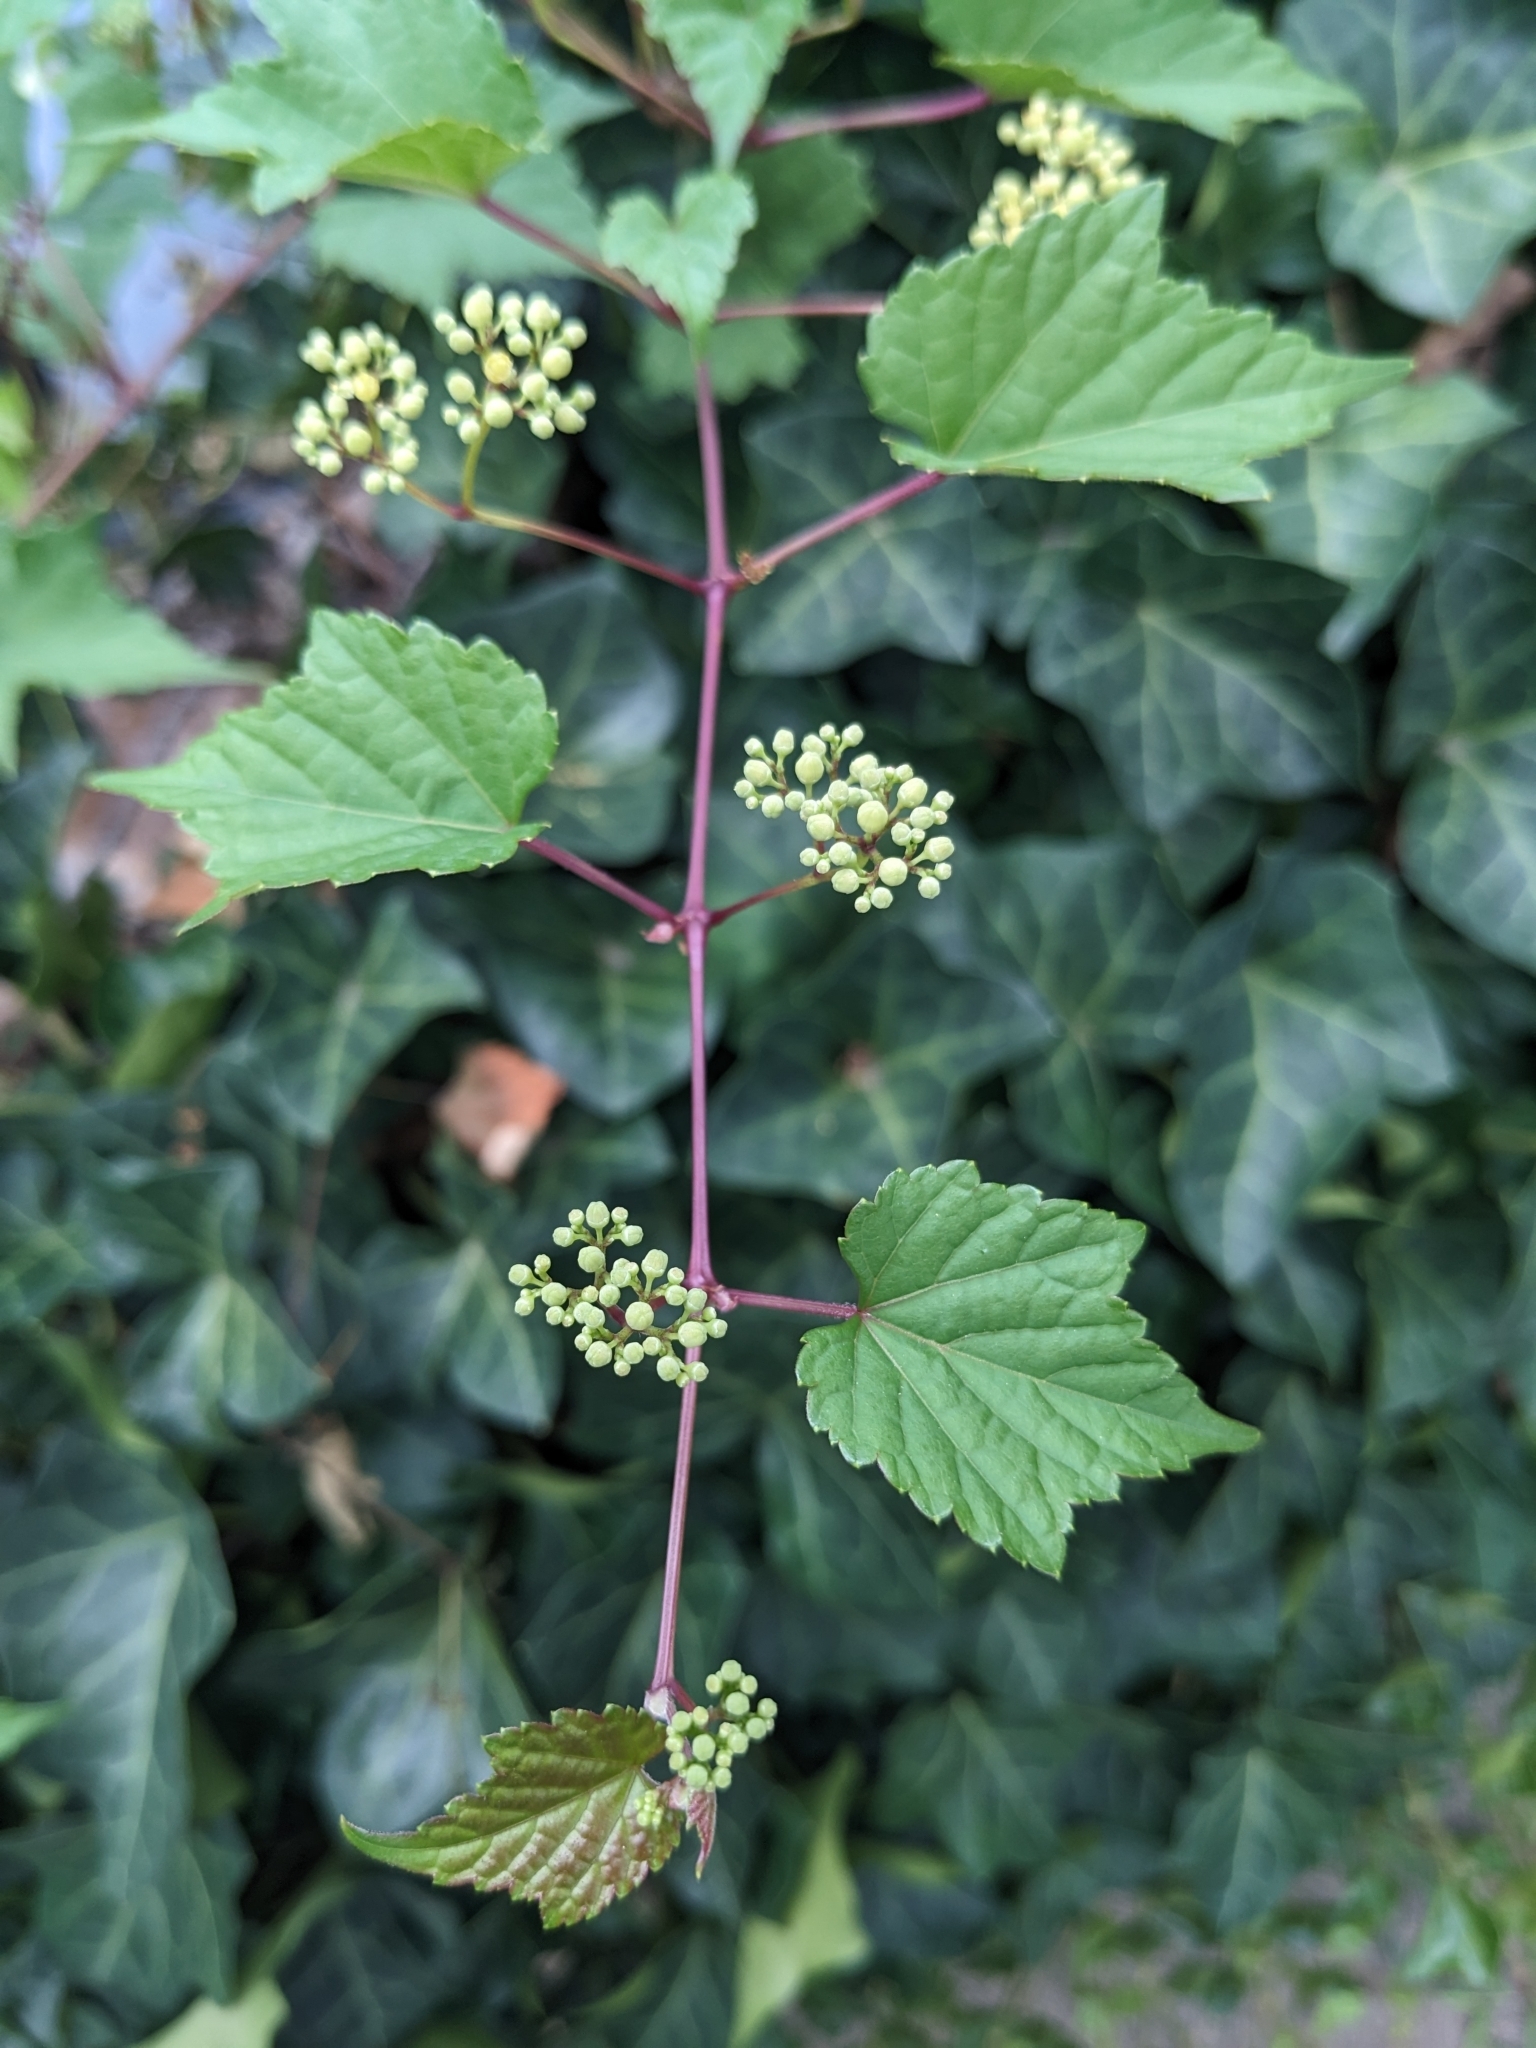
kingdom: Plantae
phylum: Tracheophyta
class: Magnoliopsida
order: Vitales
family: Vitaceae
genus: Ampelopsis
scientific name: Ampelopsis glandulosa
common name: Amur peppervine
